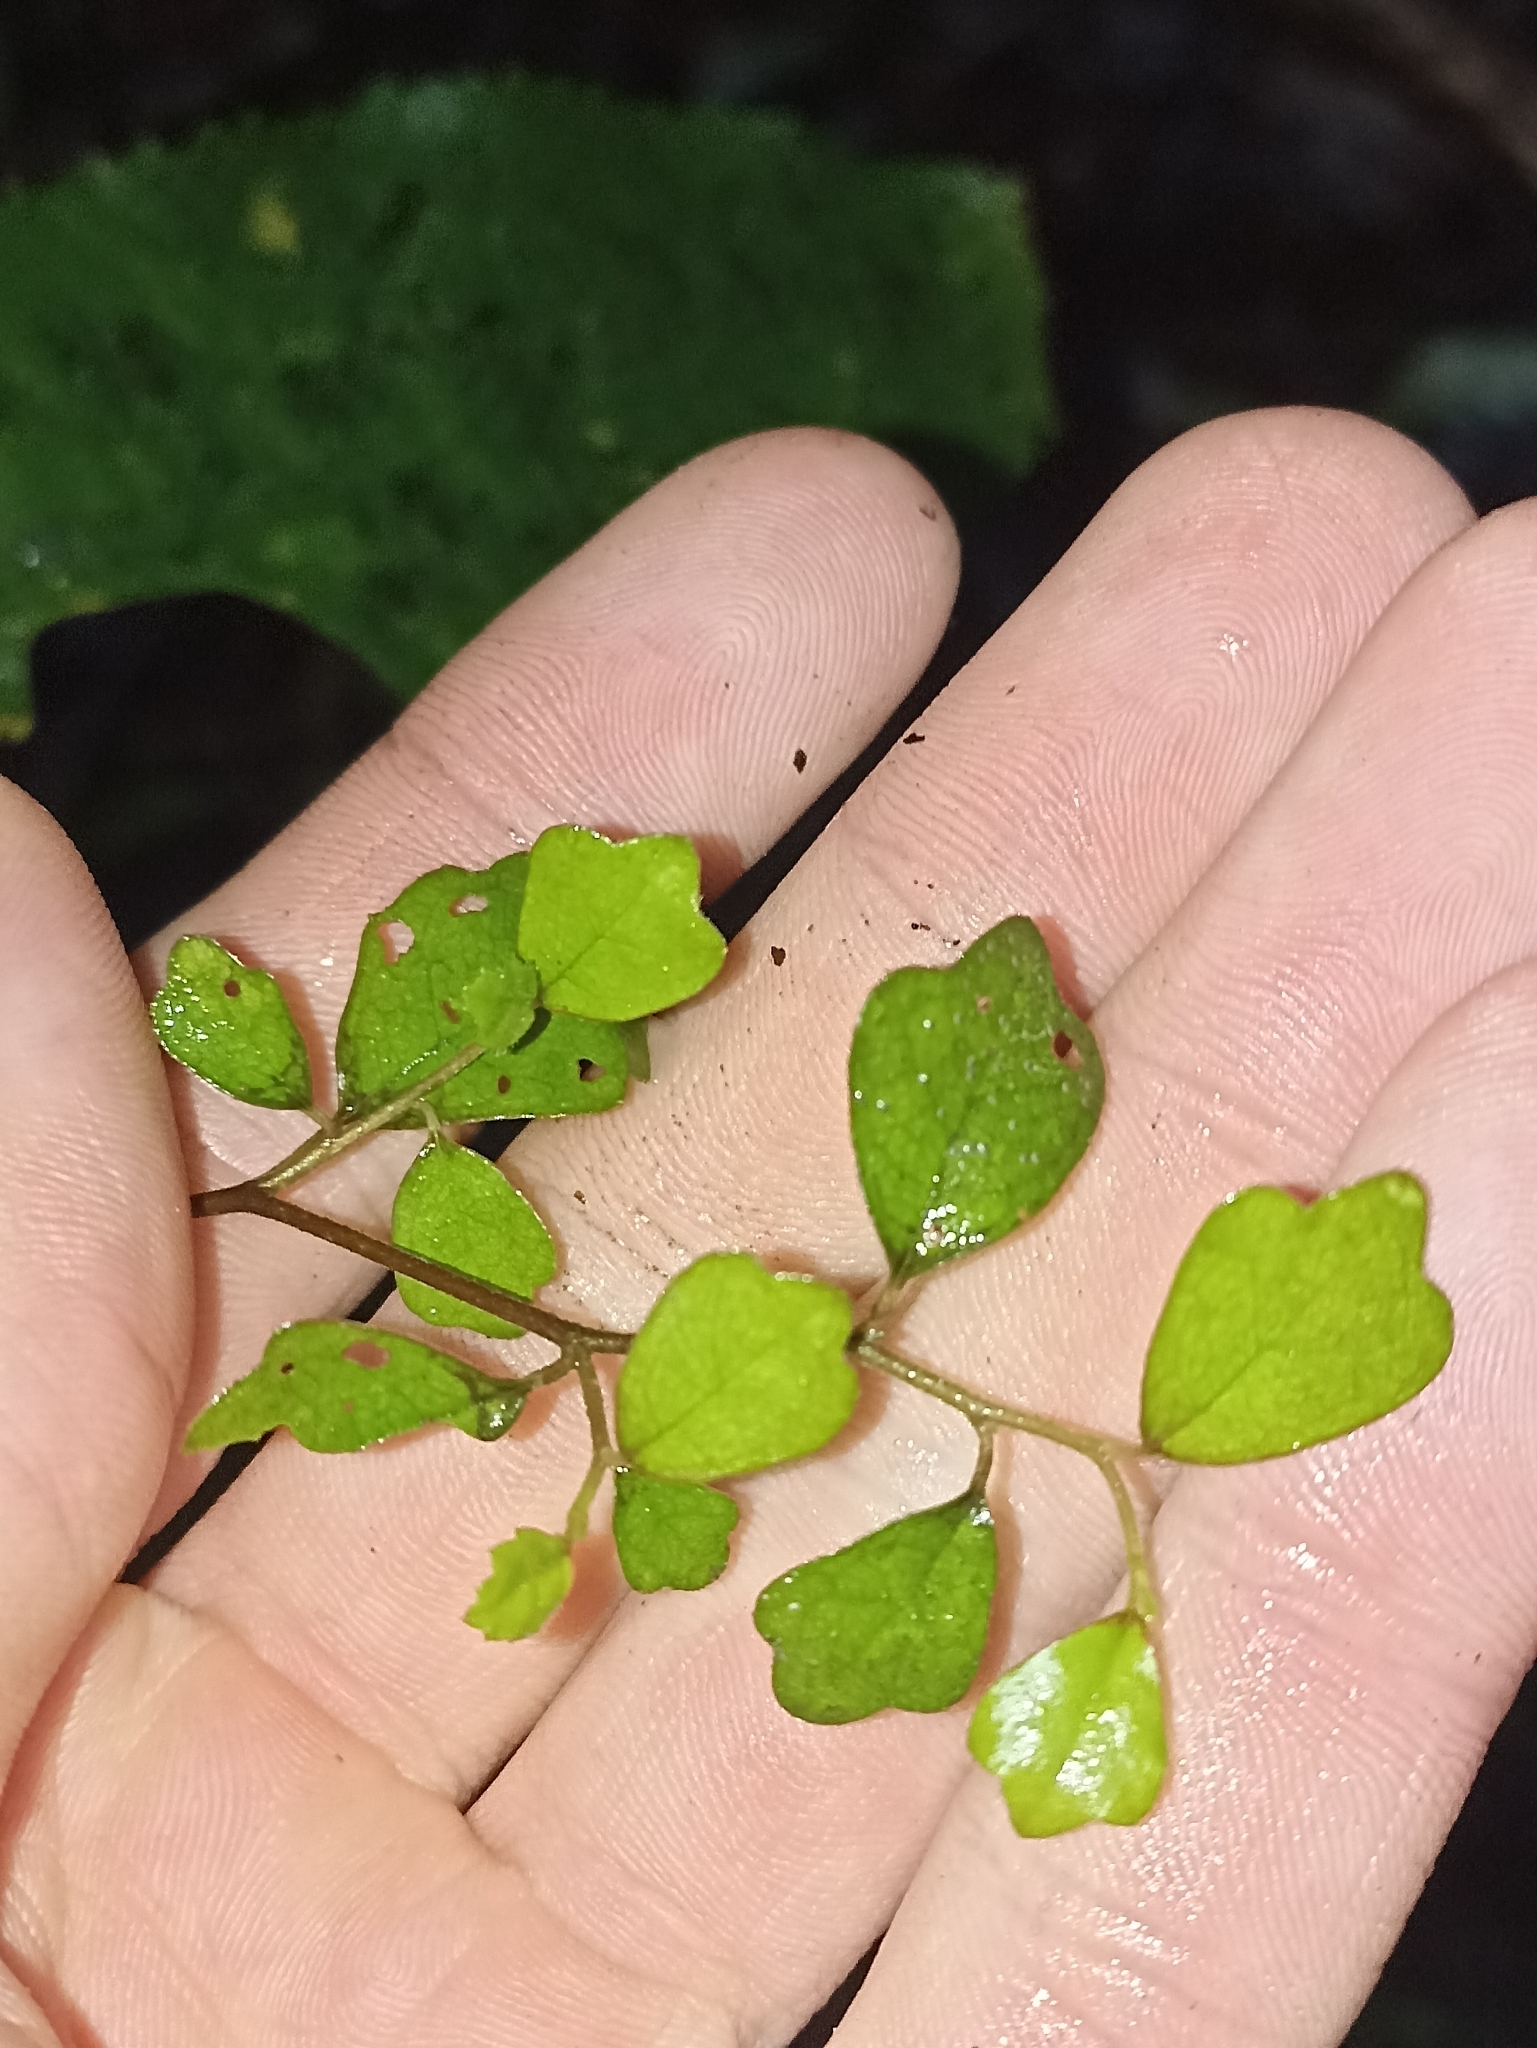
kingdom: Plantae
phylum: Tracheophyta
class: Magnoliopsida
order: Apiales
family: Pennantiaceae
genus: Pennantia
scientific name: Pennantia corymbosa
